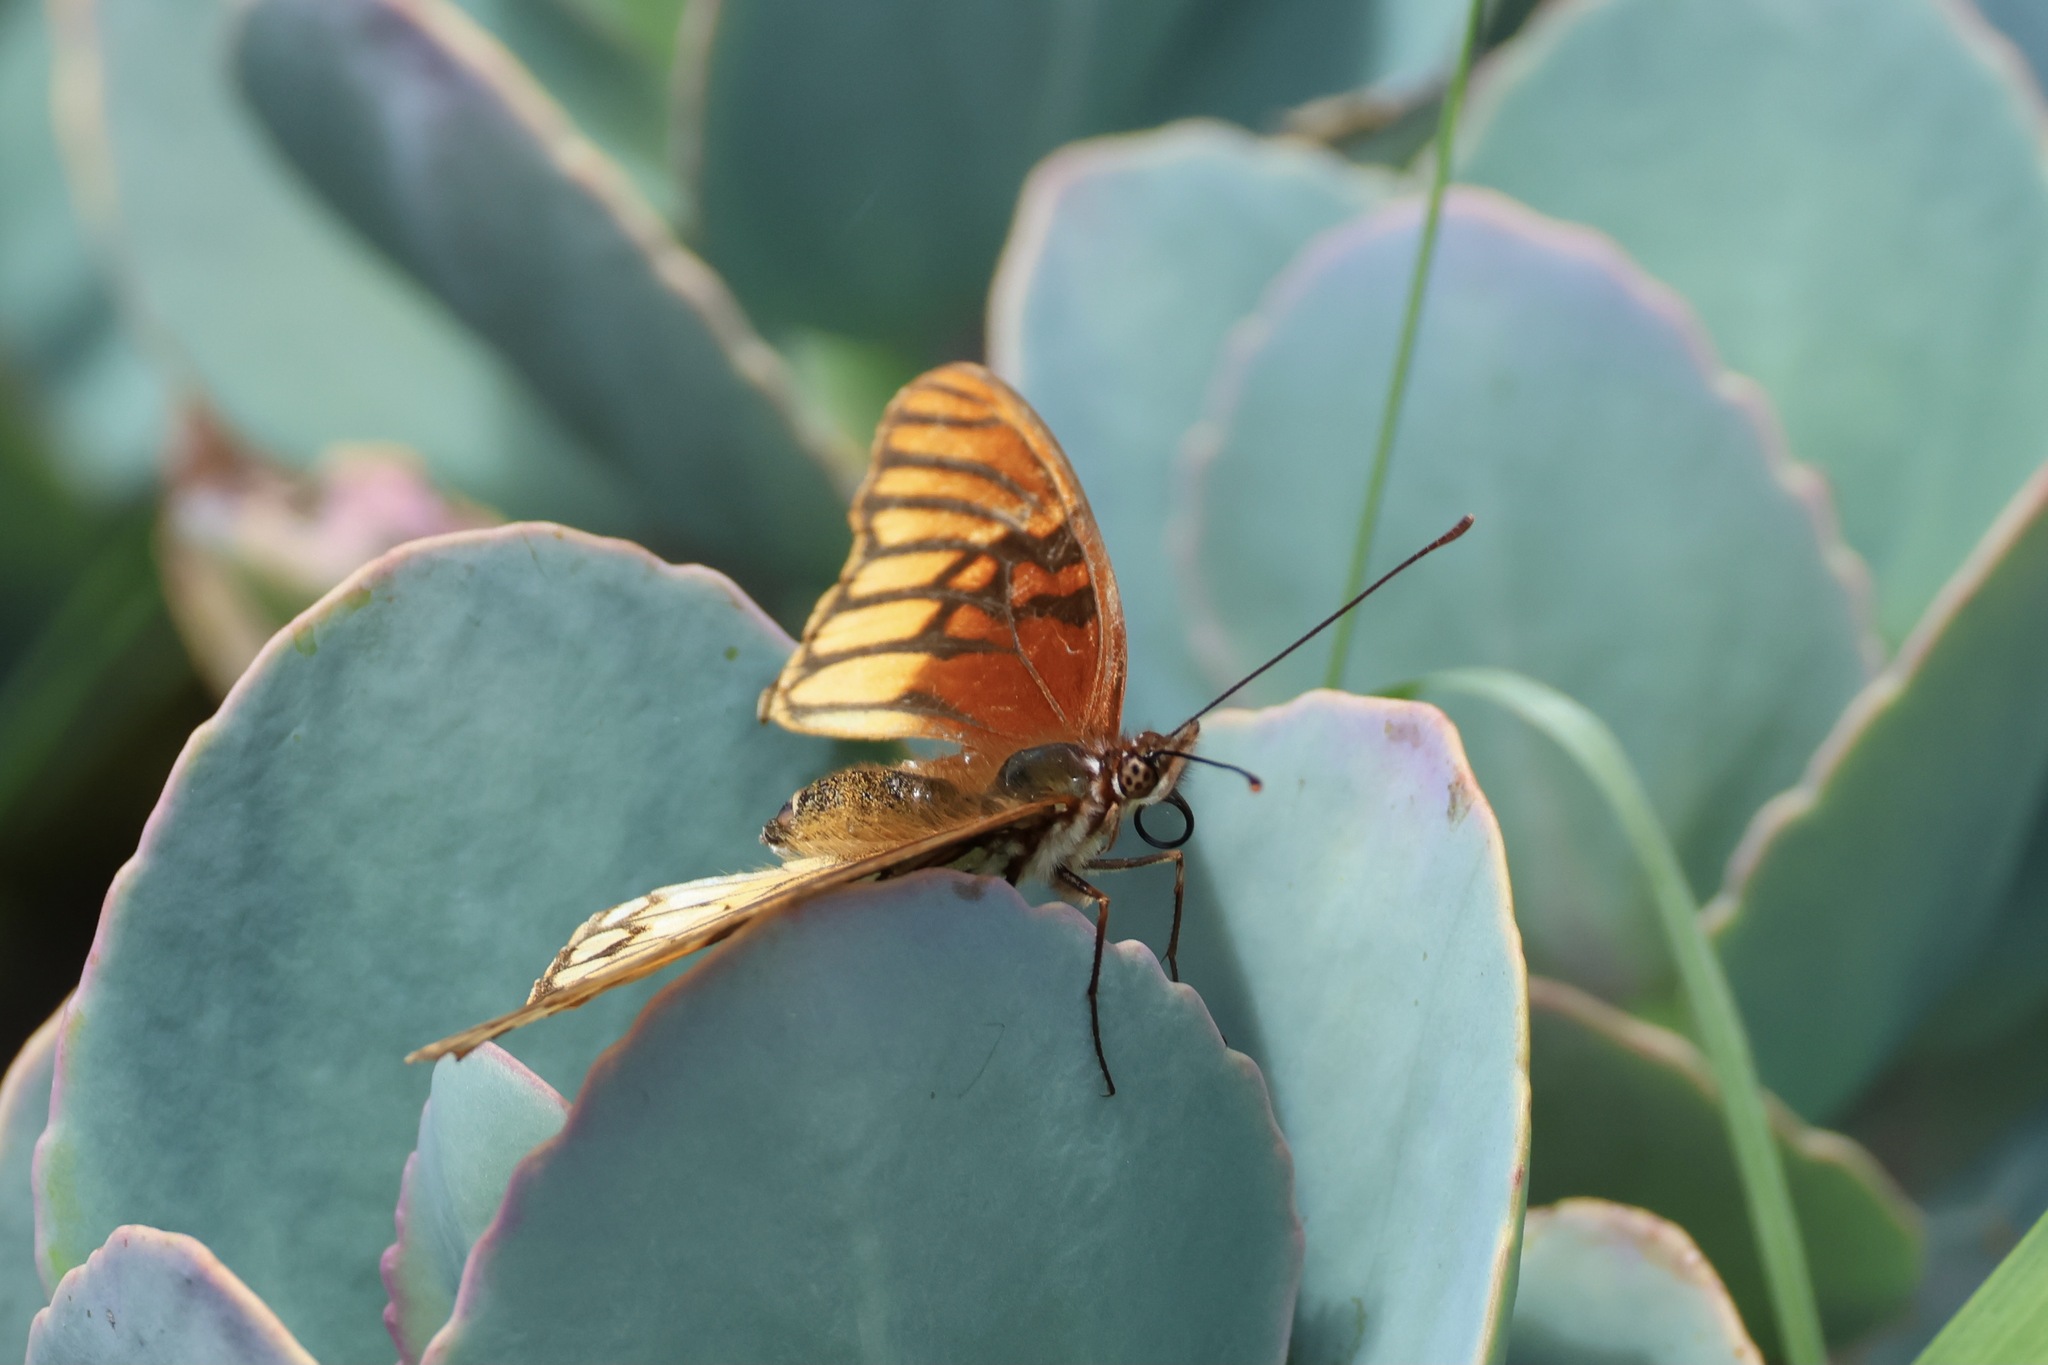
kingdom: Animalia
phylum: Arthropoda
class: Insecta
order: Lepidoptera
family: Nymphalidae
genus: Dione
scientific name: Dione moneta
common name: Mexican silverspot
